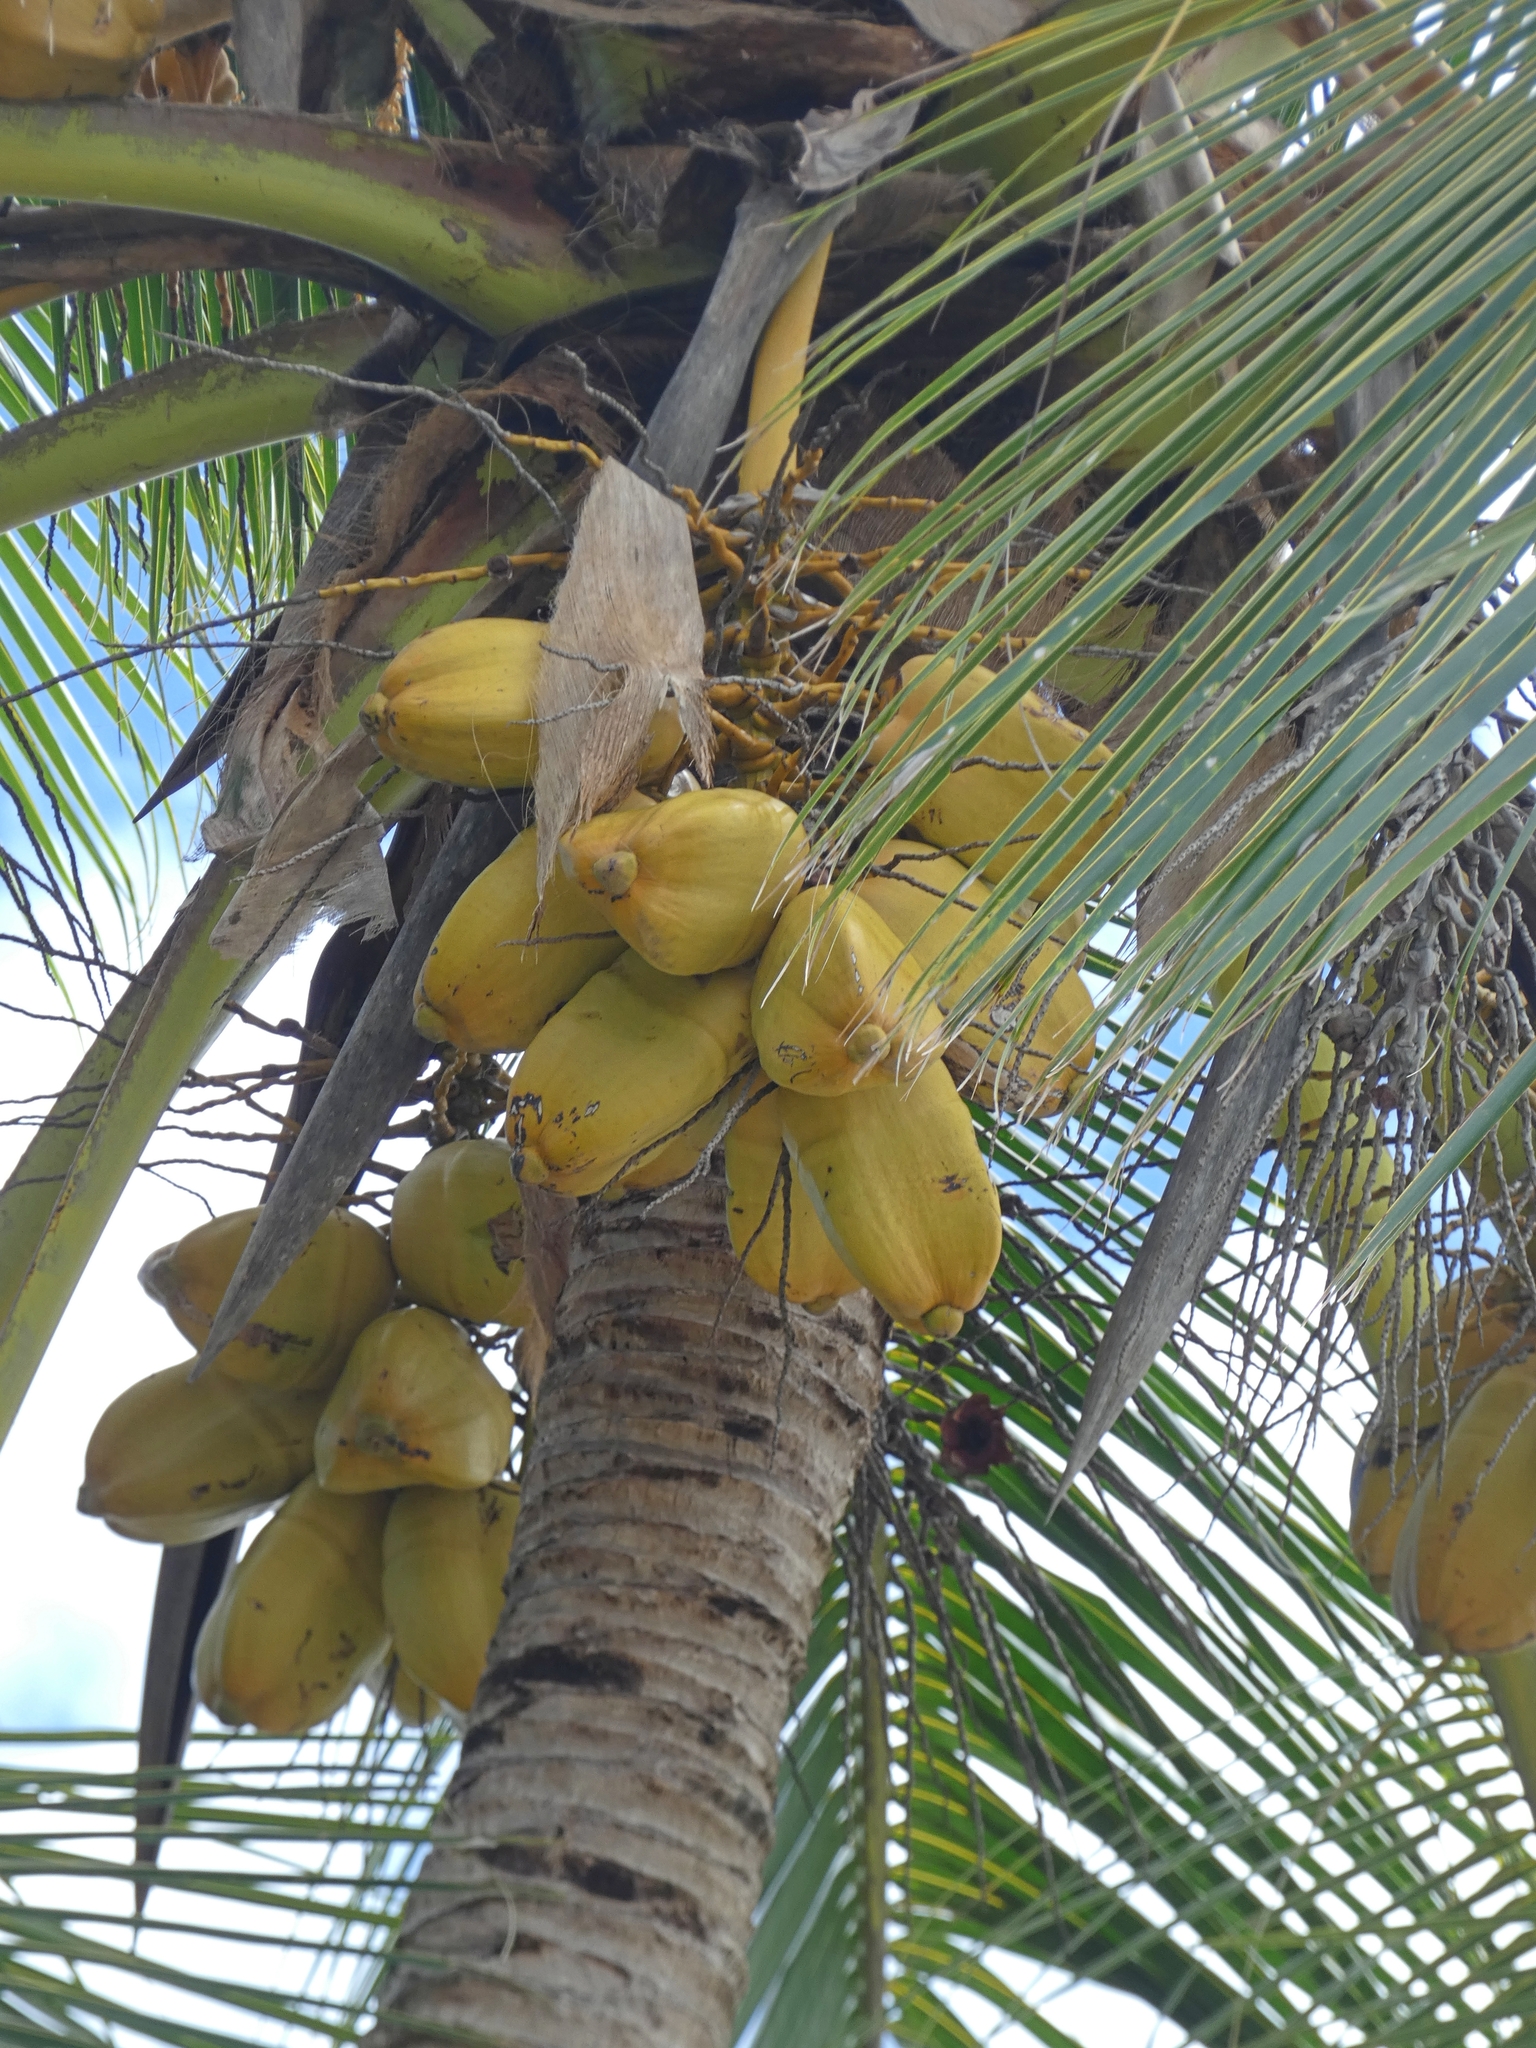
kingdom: Plantae
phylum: Tracheophyta
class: Liliopsida
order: Arecales
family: Arecaceae
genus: Cocos
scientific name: Cocos nucifera
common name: Coconut palm
